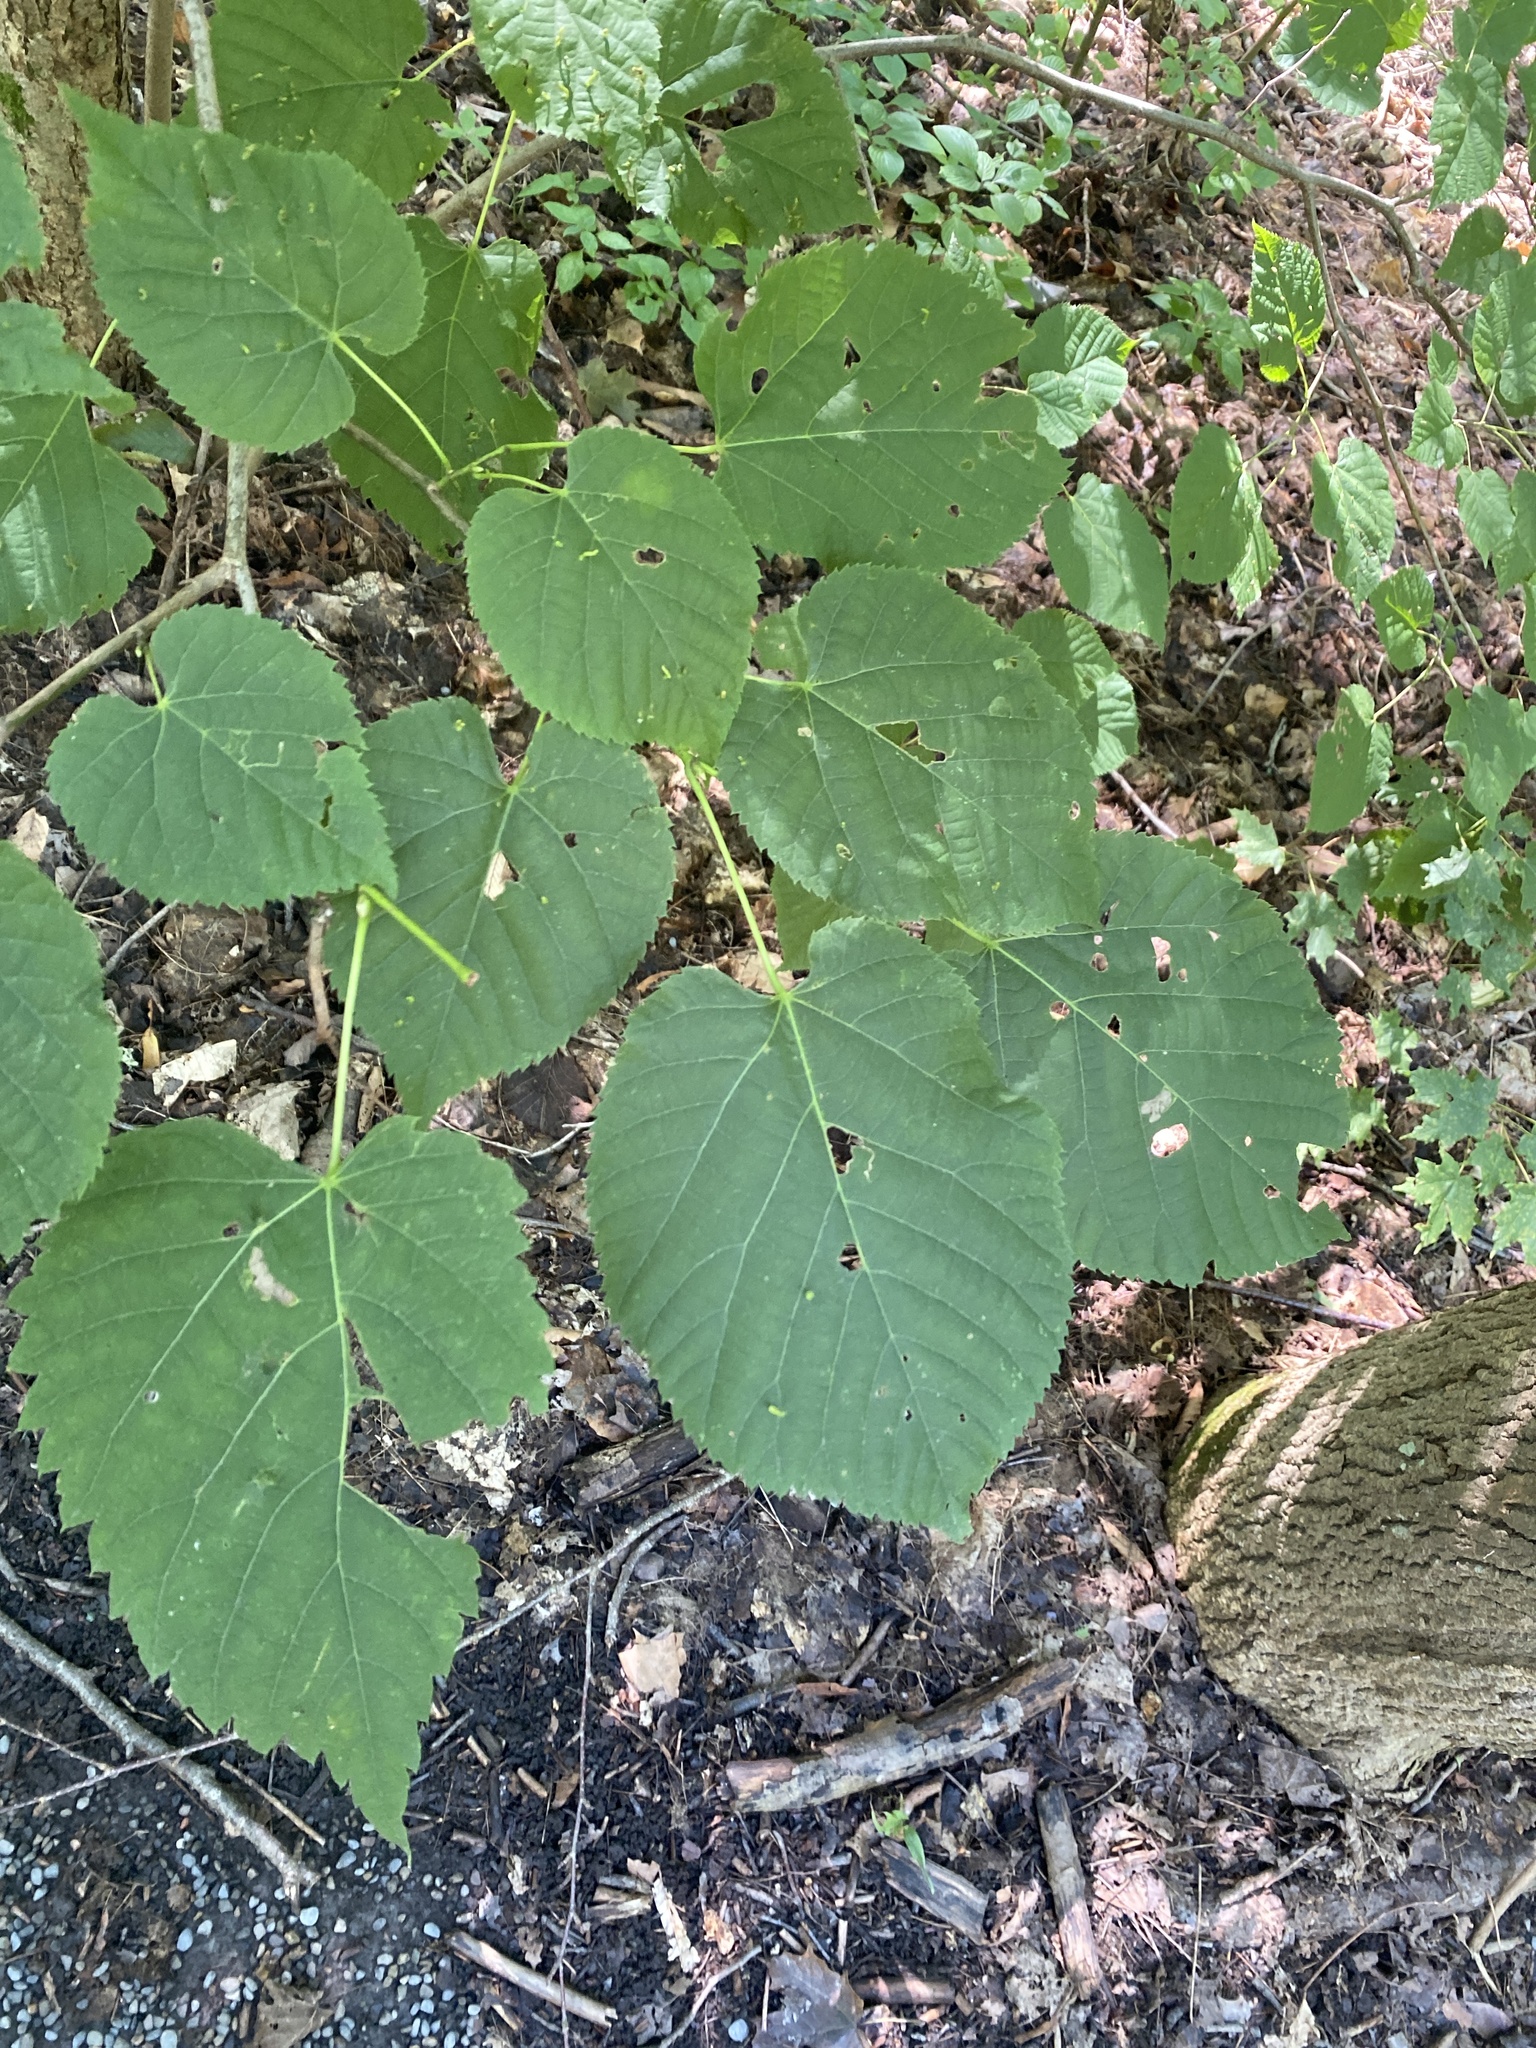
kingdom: Plantae
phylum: Tracheophyta
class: Magnoliopsida
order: Malvales
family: Malvaceae
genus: Tilia
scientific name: Tilia americana
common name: Basswood
